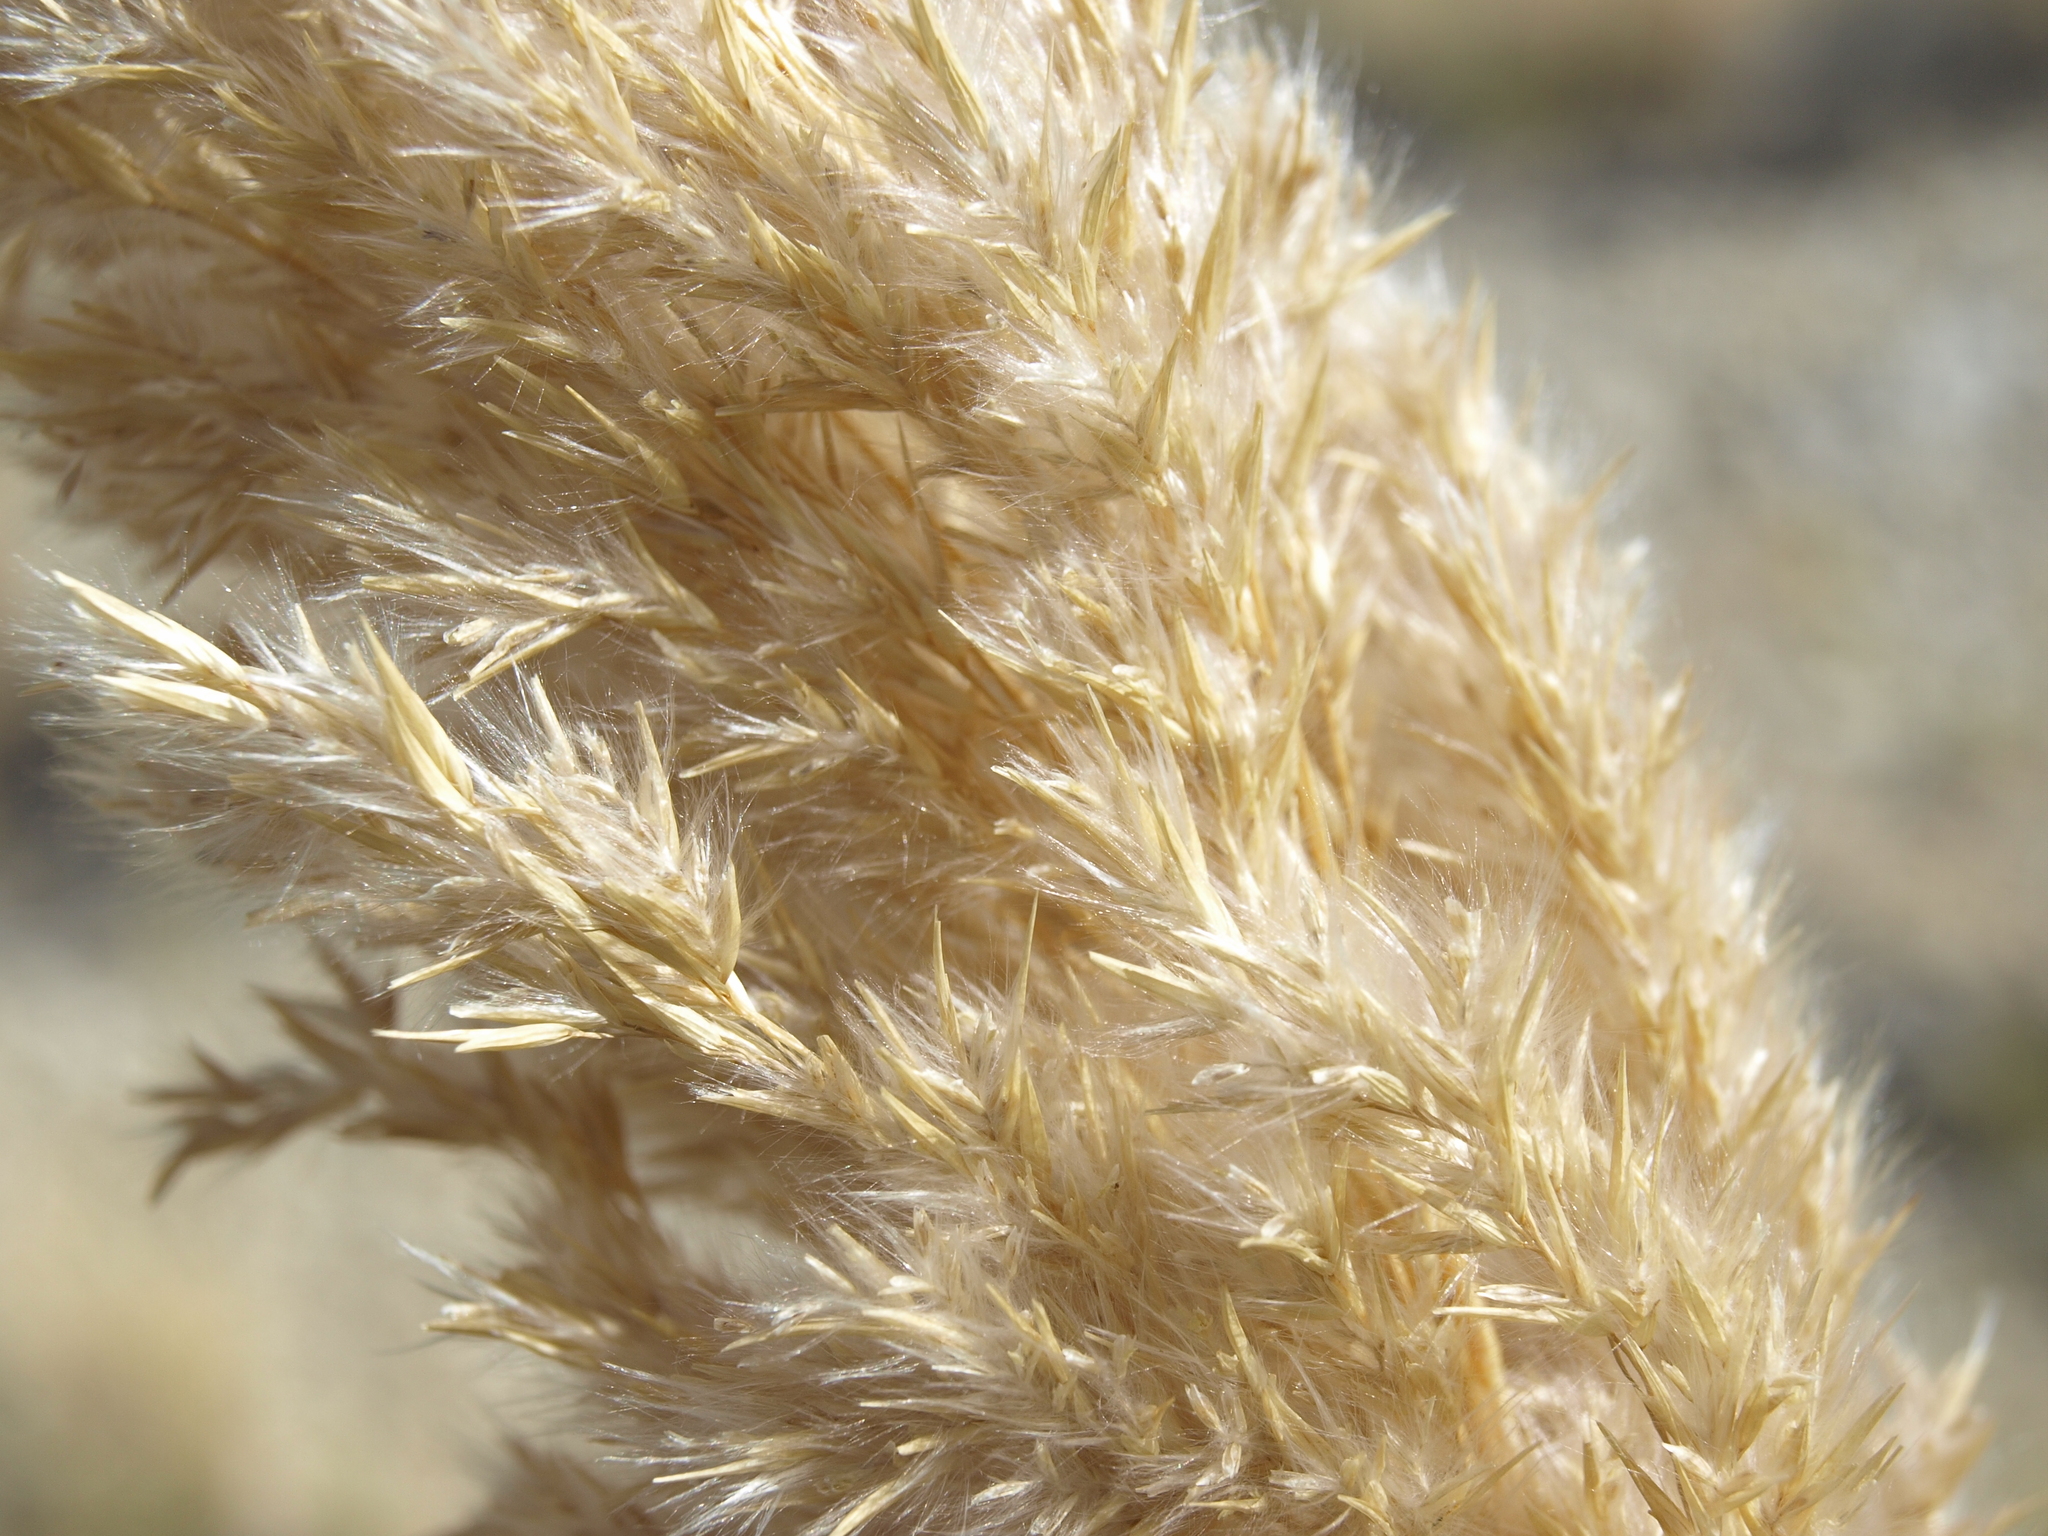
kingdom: Plantae
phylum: Tracheophyta
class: Liliopsida
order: Poales
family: Poaceae
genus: Phragmites
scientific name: Phragmites australis
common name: Common reed
